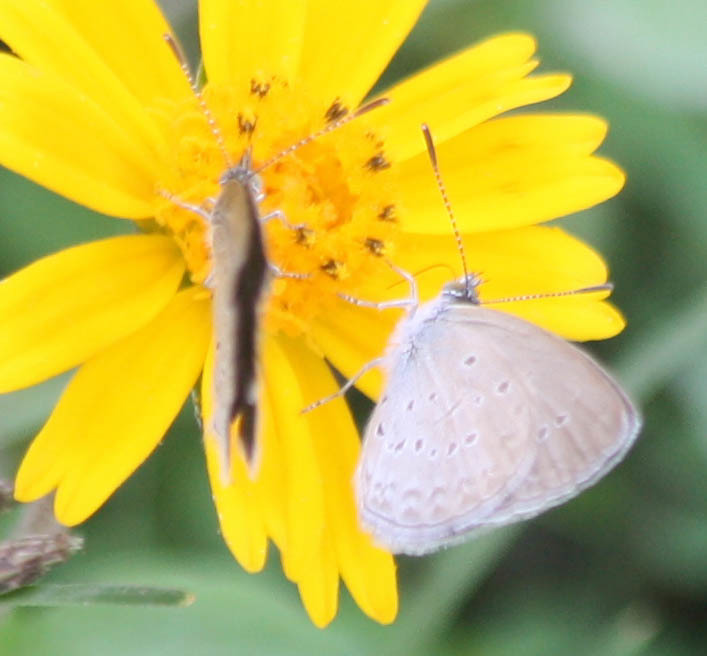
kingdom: Animalia
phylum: Arthropoda
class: Insecta
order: Lepidoptera
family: Lycaenidae
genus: Zizina
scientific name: Zizina otis
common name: Lesser grass blue
